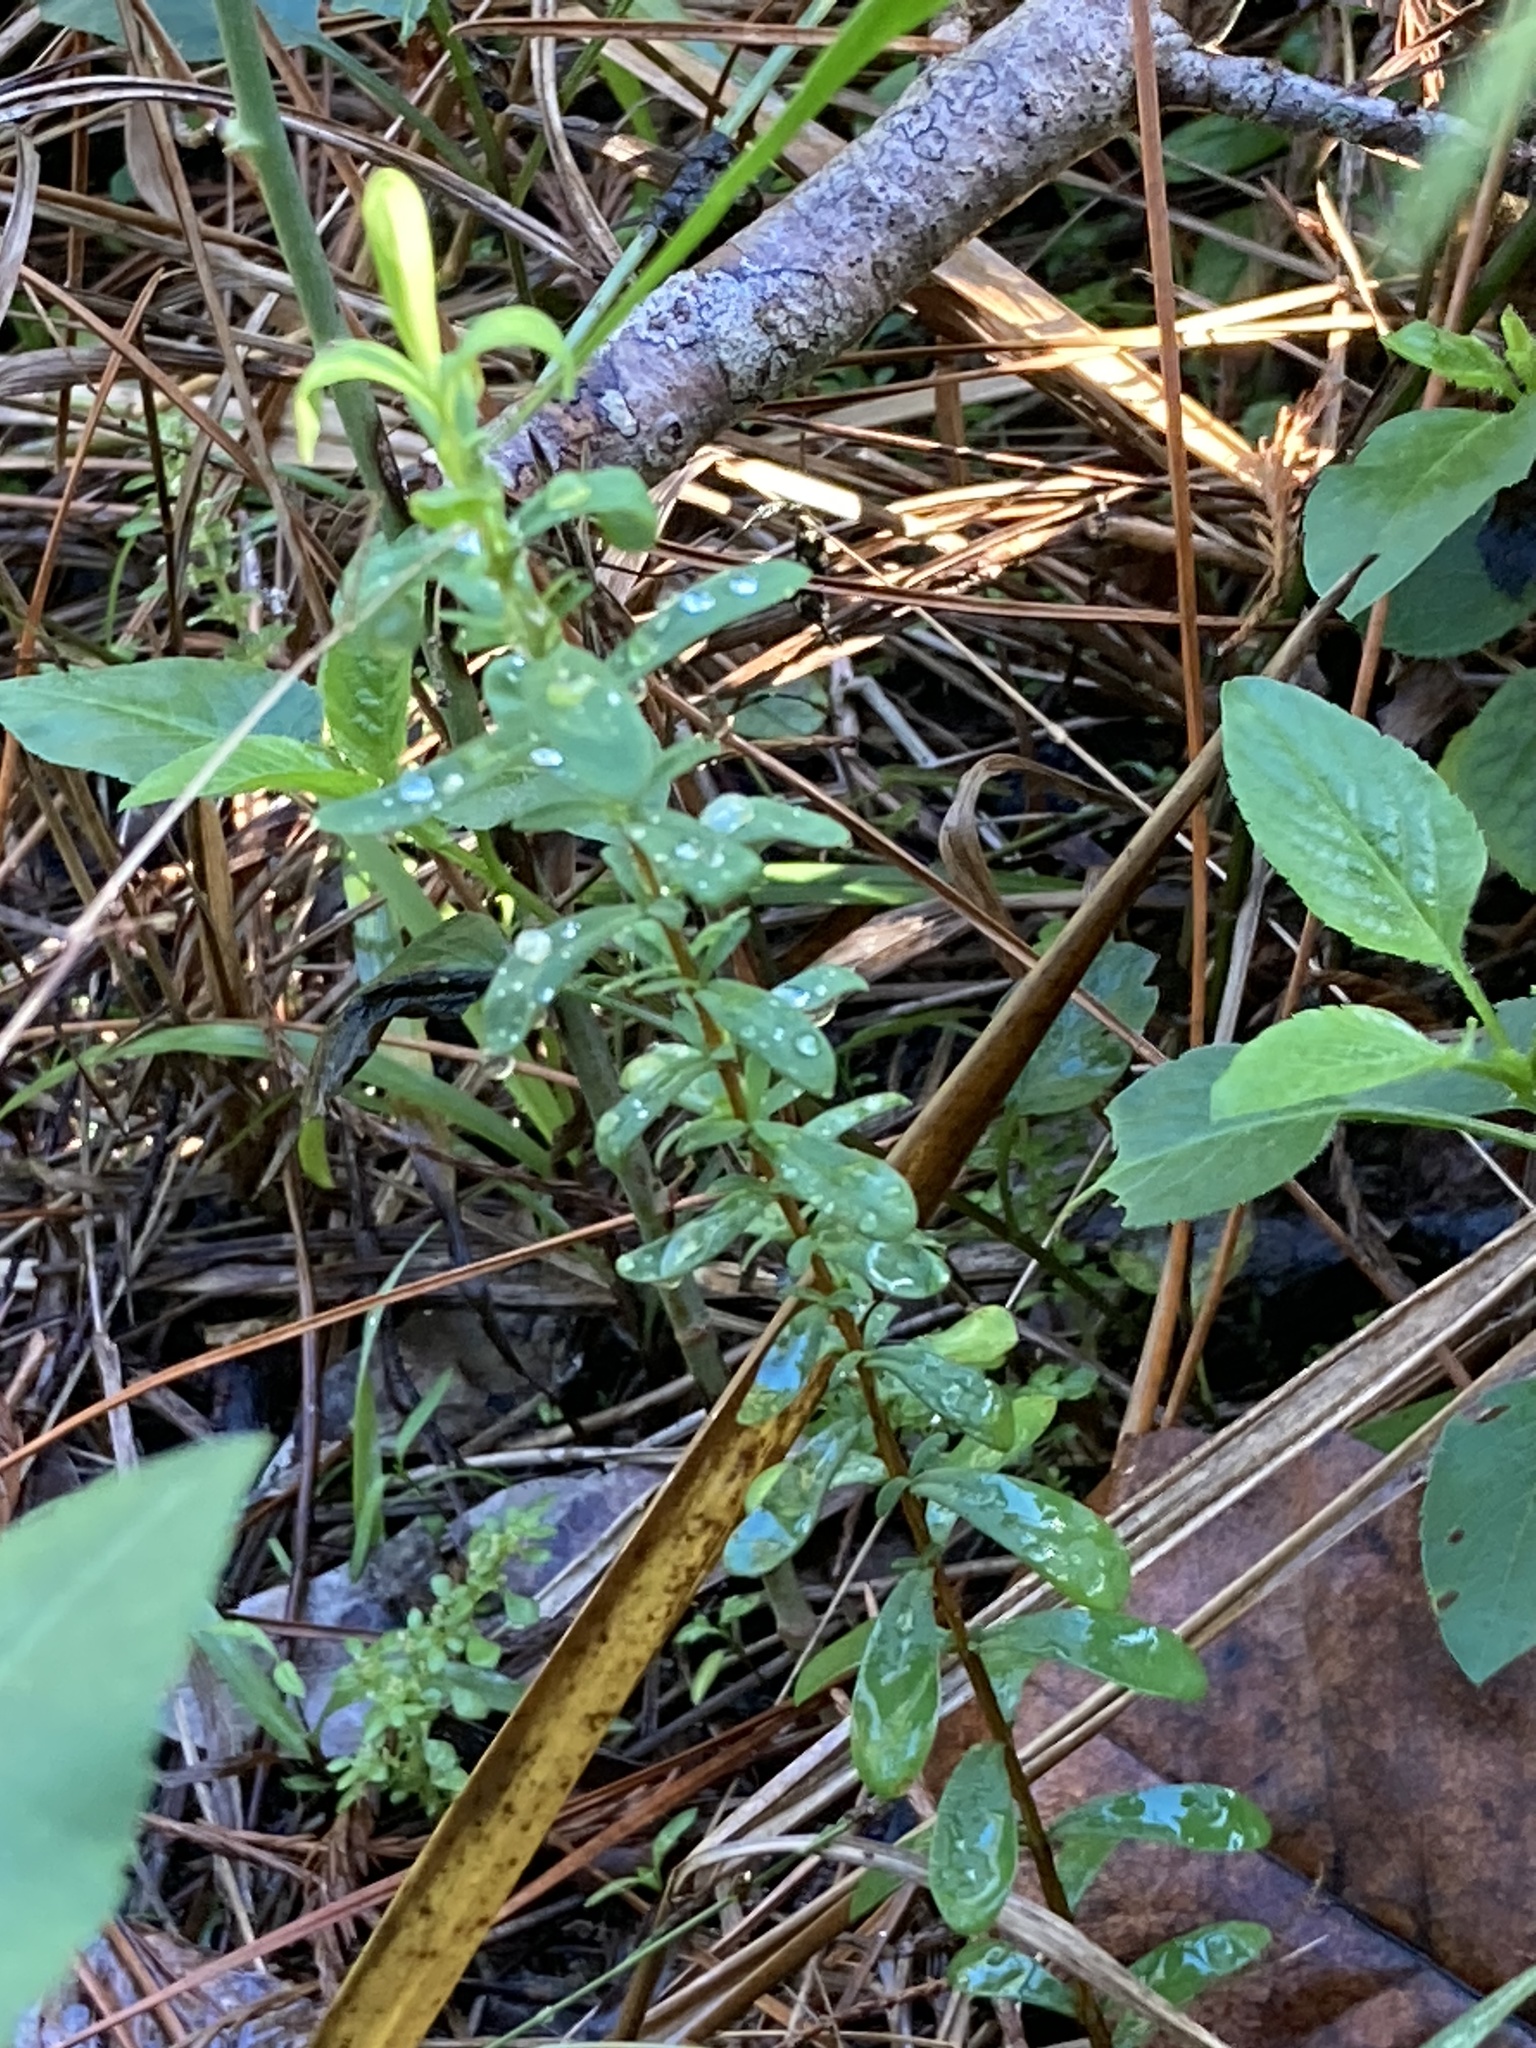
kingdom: Plantae
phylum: Tracheophyta
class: Magnoliopsida
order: Malpighiales
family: Hypericaceae
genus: Hypericum
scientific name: Hypericum hypericoides
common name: St. andrew's cross
